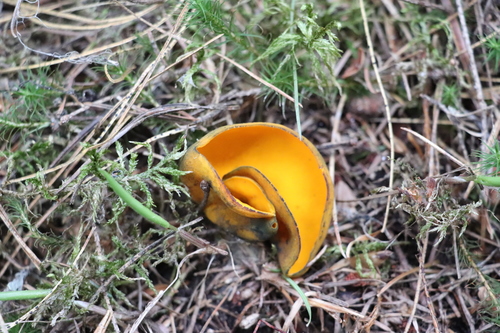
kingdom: Fungi
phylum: Ascomycota
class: Pezizomycetes
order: Pezizales
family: Caloscyphaceae
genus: Caloscypha
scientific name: Caloscypha fulgens
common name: Golden cup
